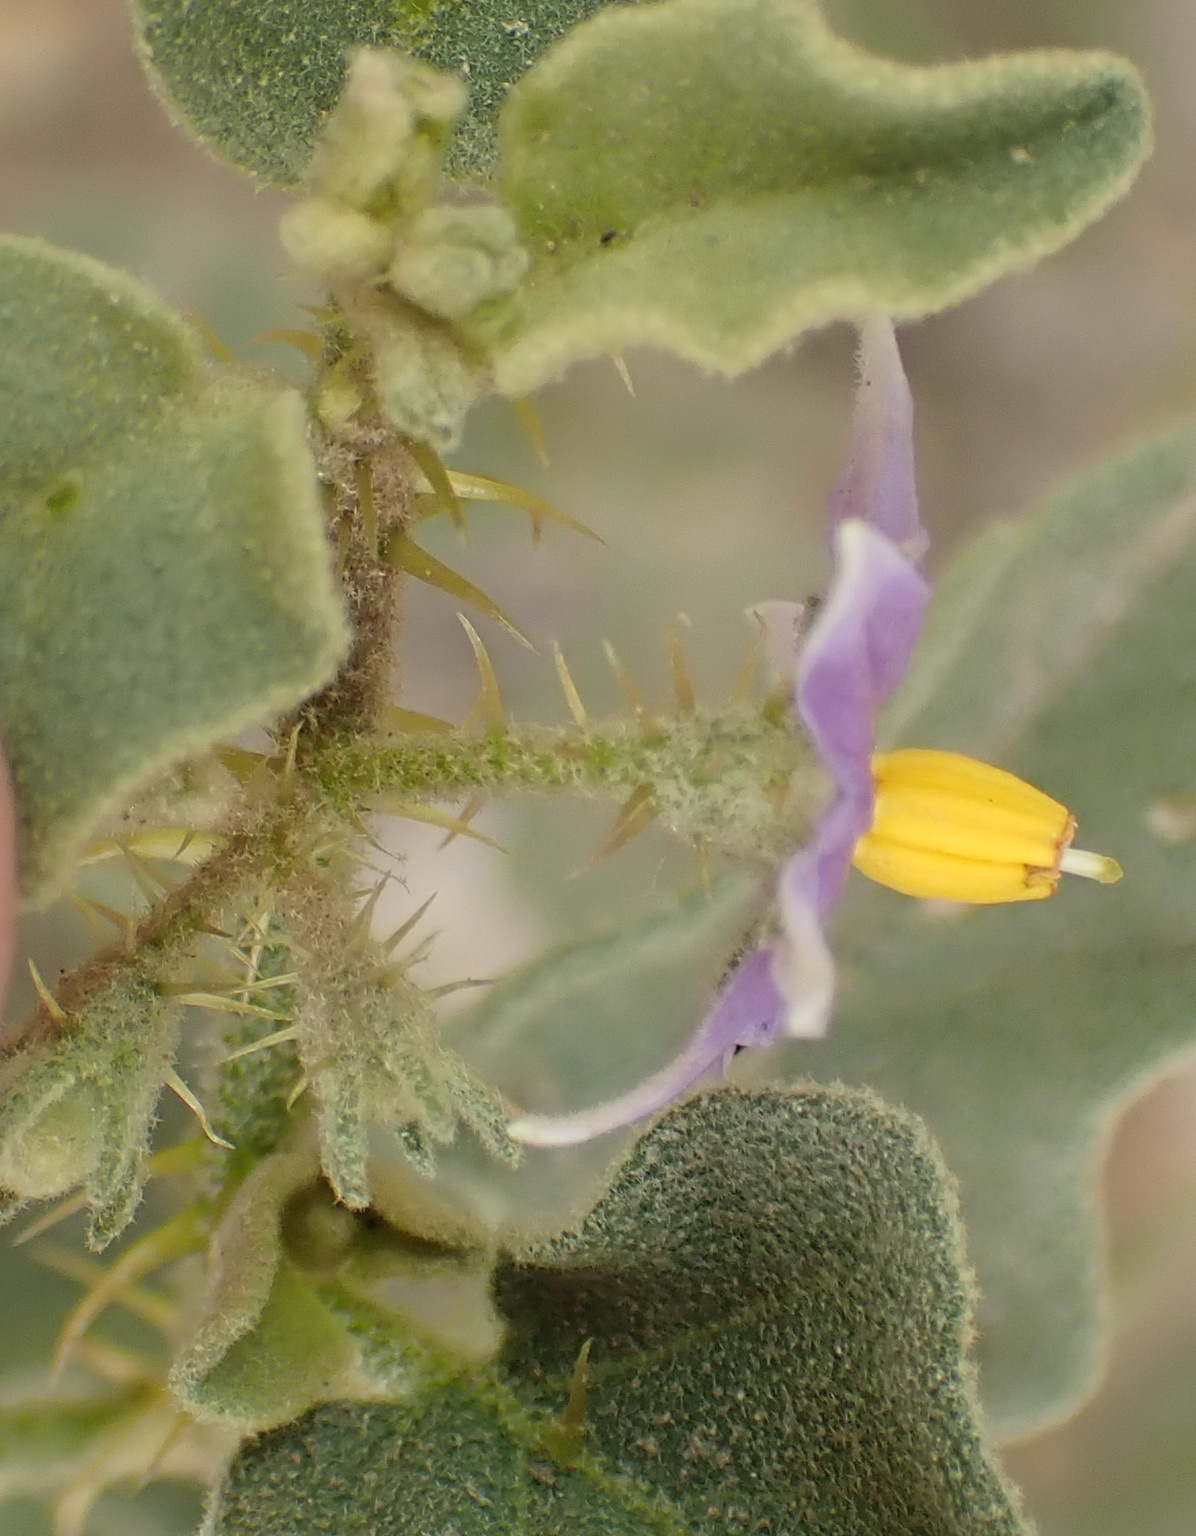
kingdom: Plantae
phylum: Tracheophyta
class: Magnoliopsida
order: Solanales
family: Solanaceae
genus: Solanum
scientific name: Solanum tomentosum
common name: Wild aubergine
